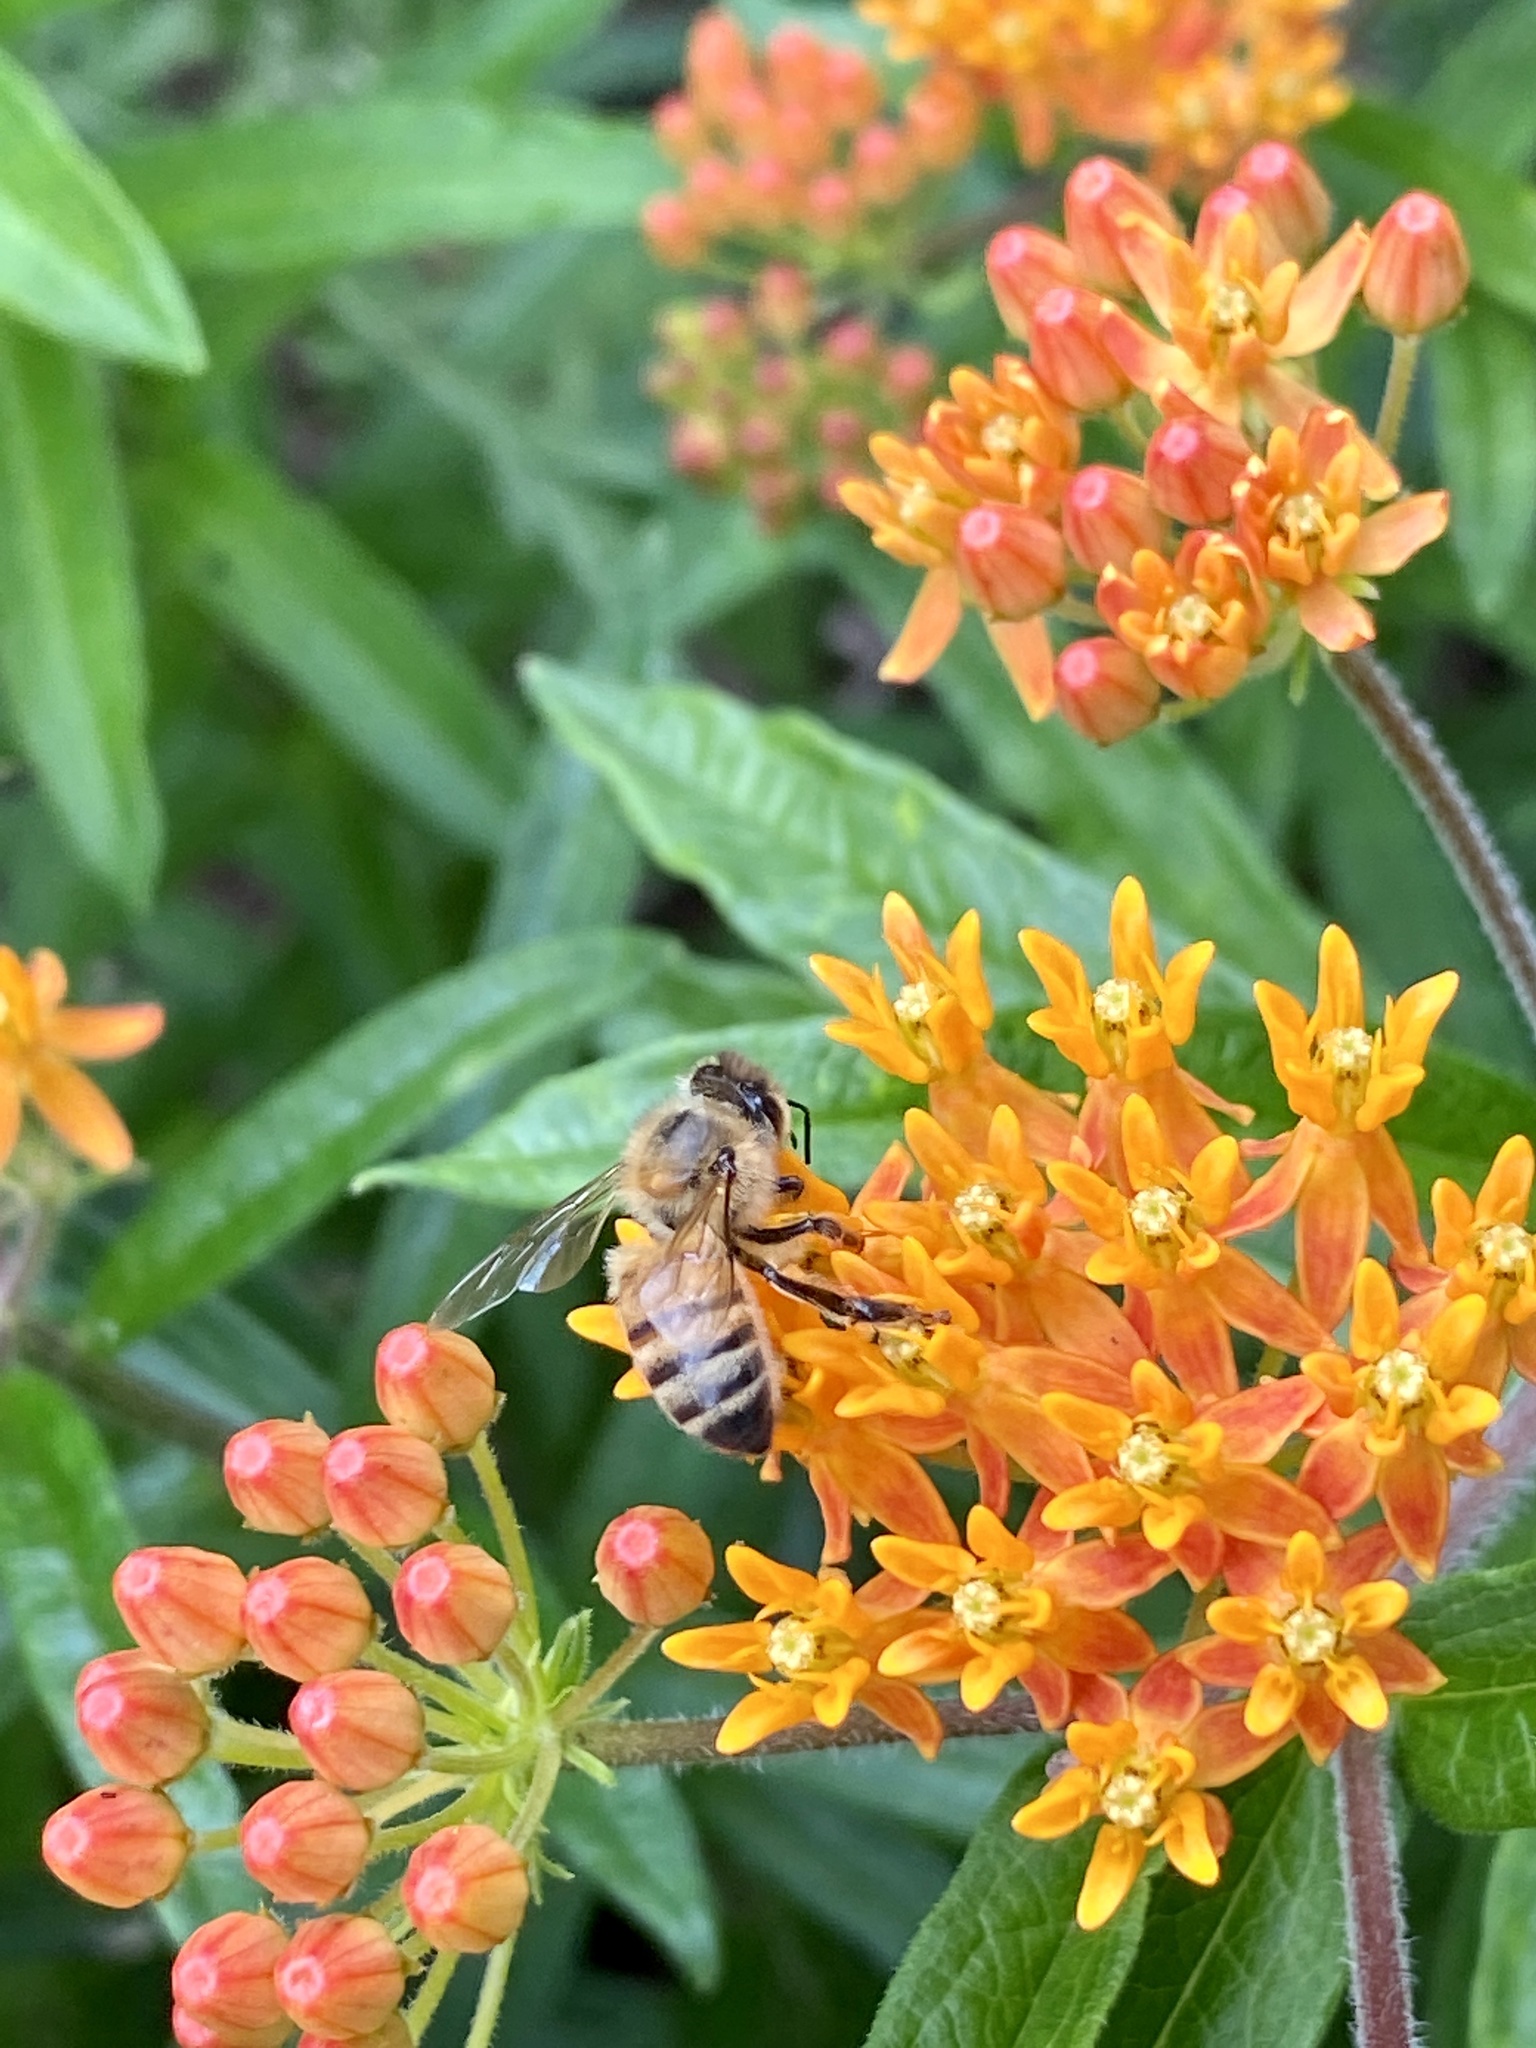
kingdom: Animalia
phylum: Arthropoda
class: Insecta
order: Hymenoptera
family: Apidae
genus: Apis
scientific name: Apis mellifera
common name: Honey bee
